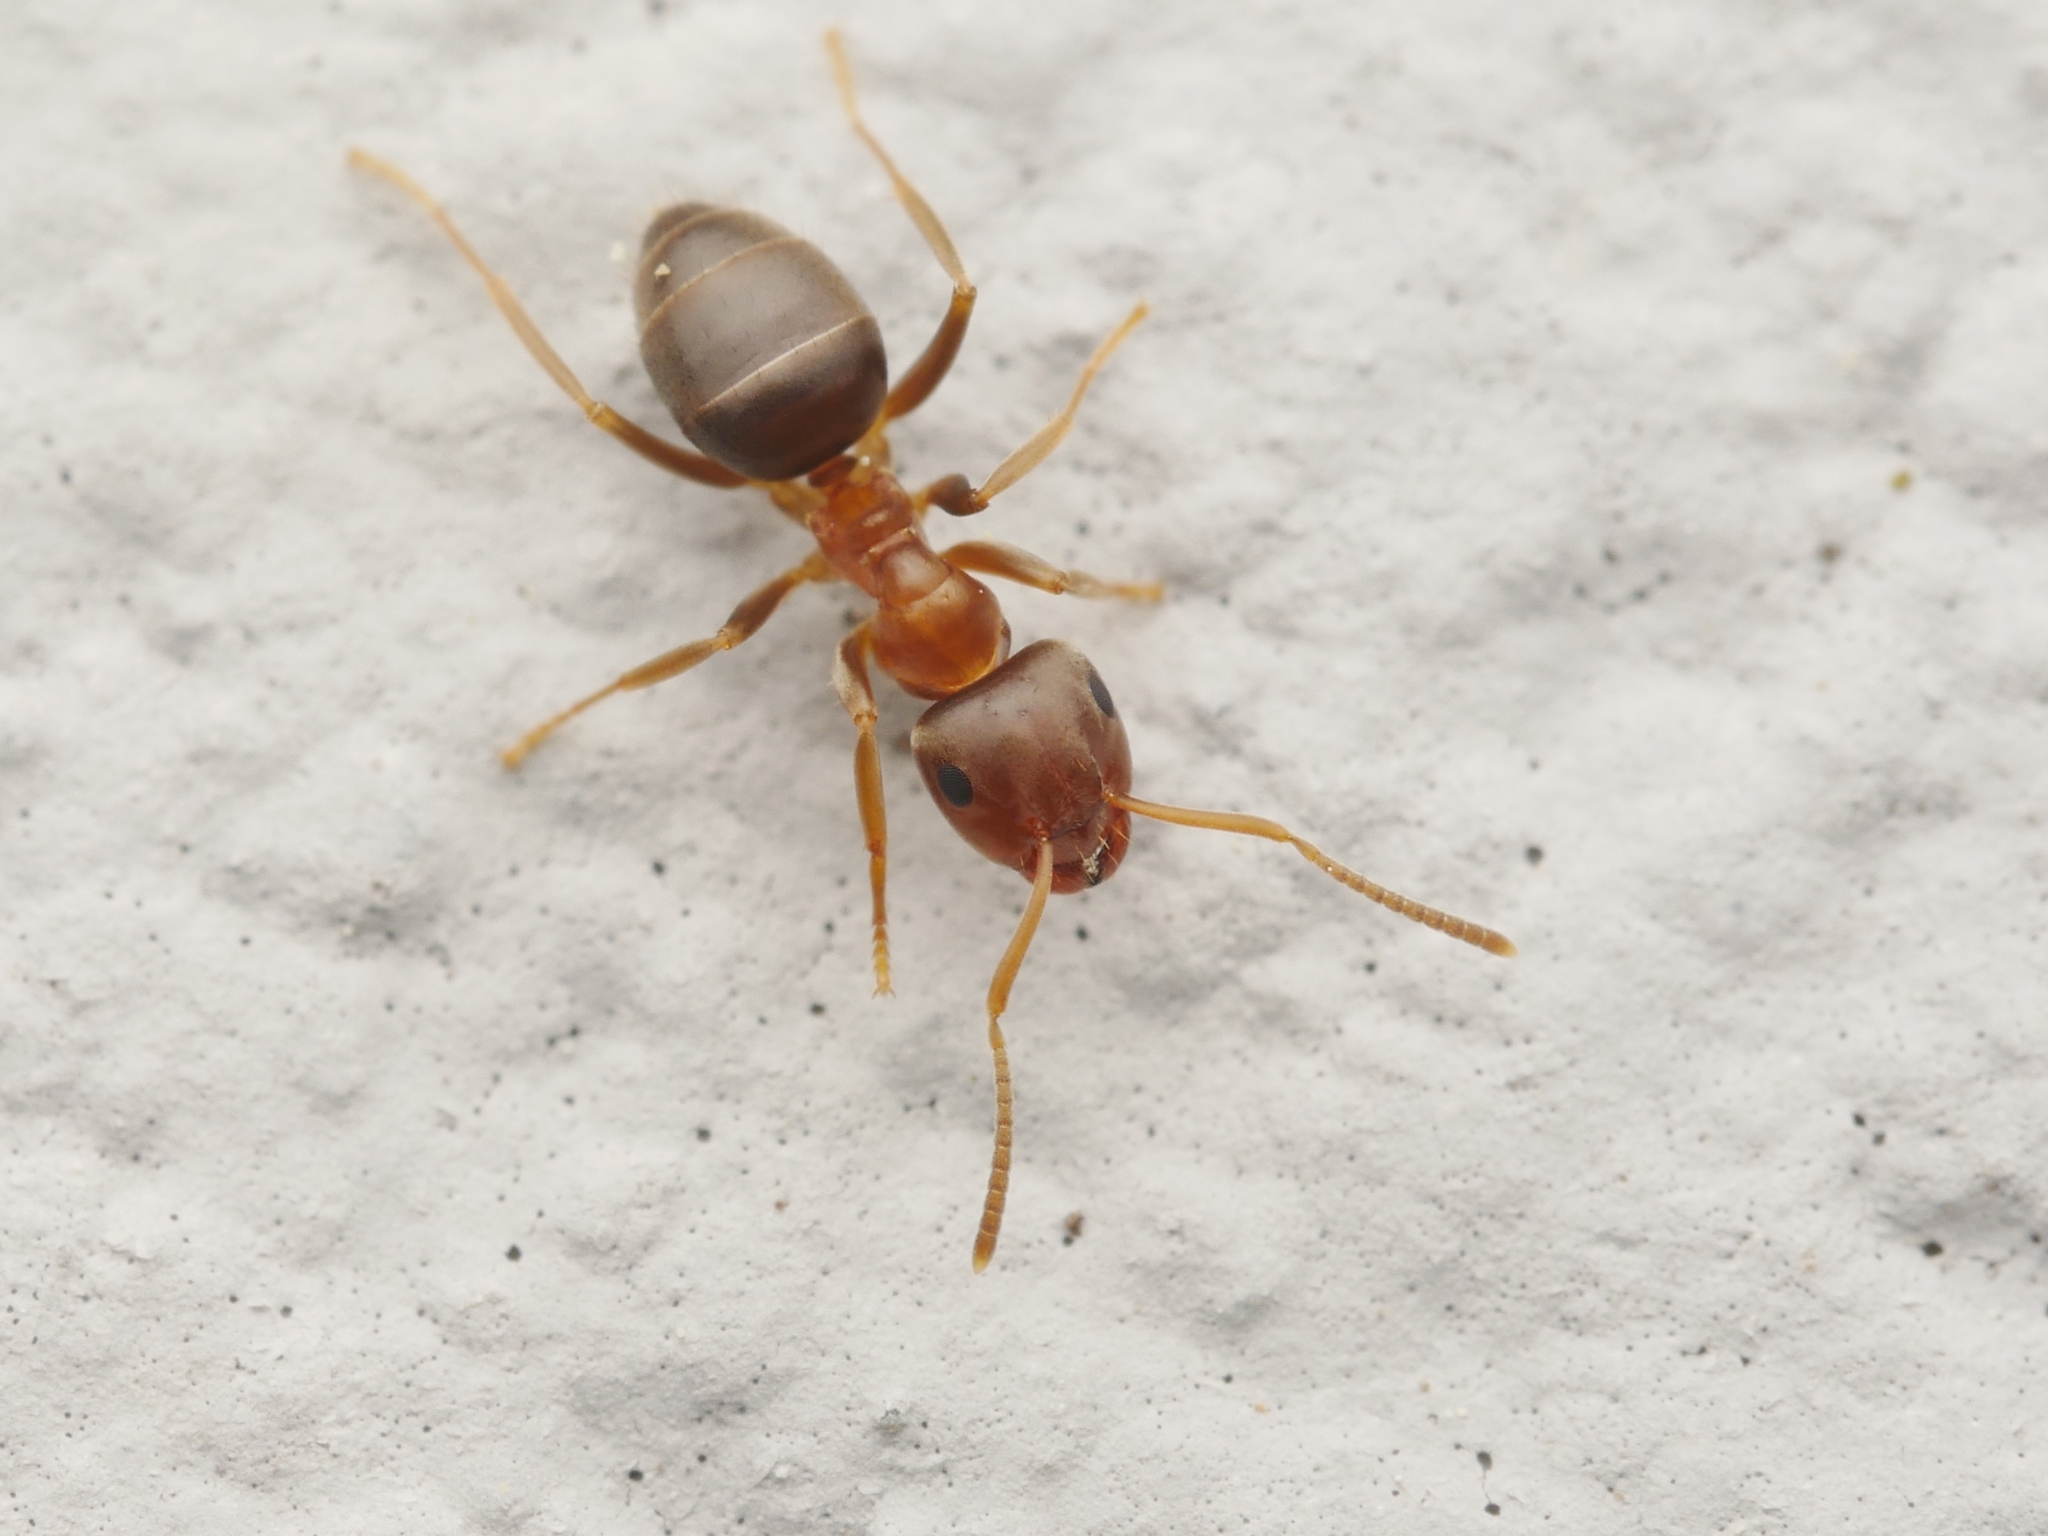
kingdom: Animalia
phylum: Arthropoda
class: Insecta
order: Hymenoptera
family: Formicidae
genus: Lasius
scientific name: Lasius brunneus
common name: Brown ant
